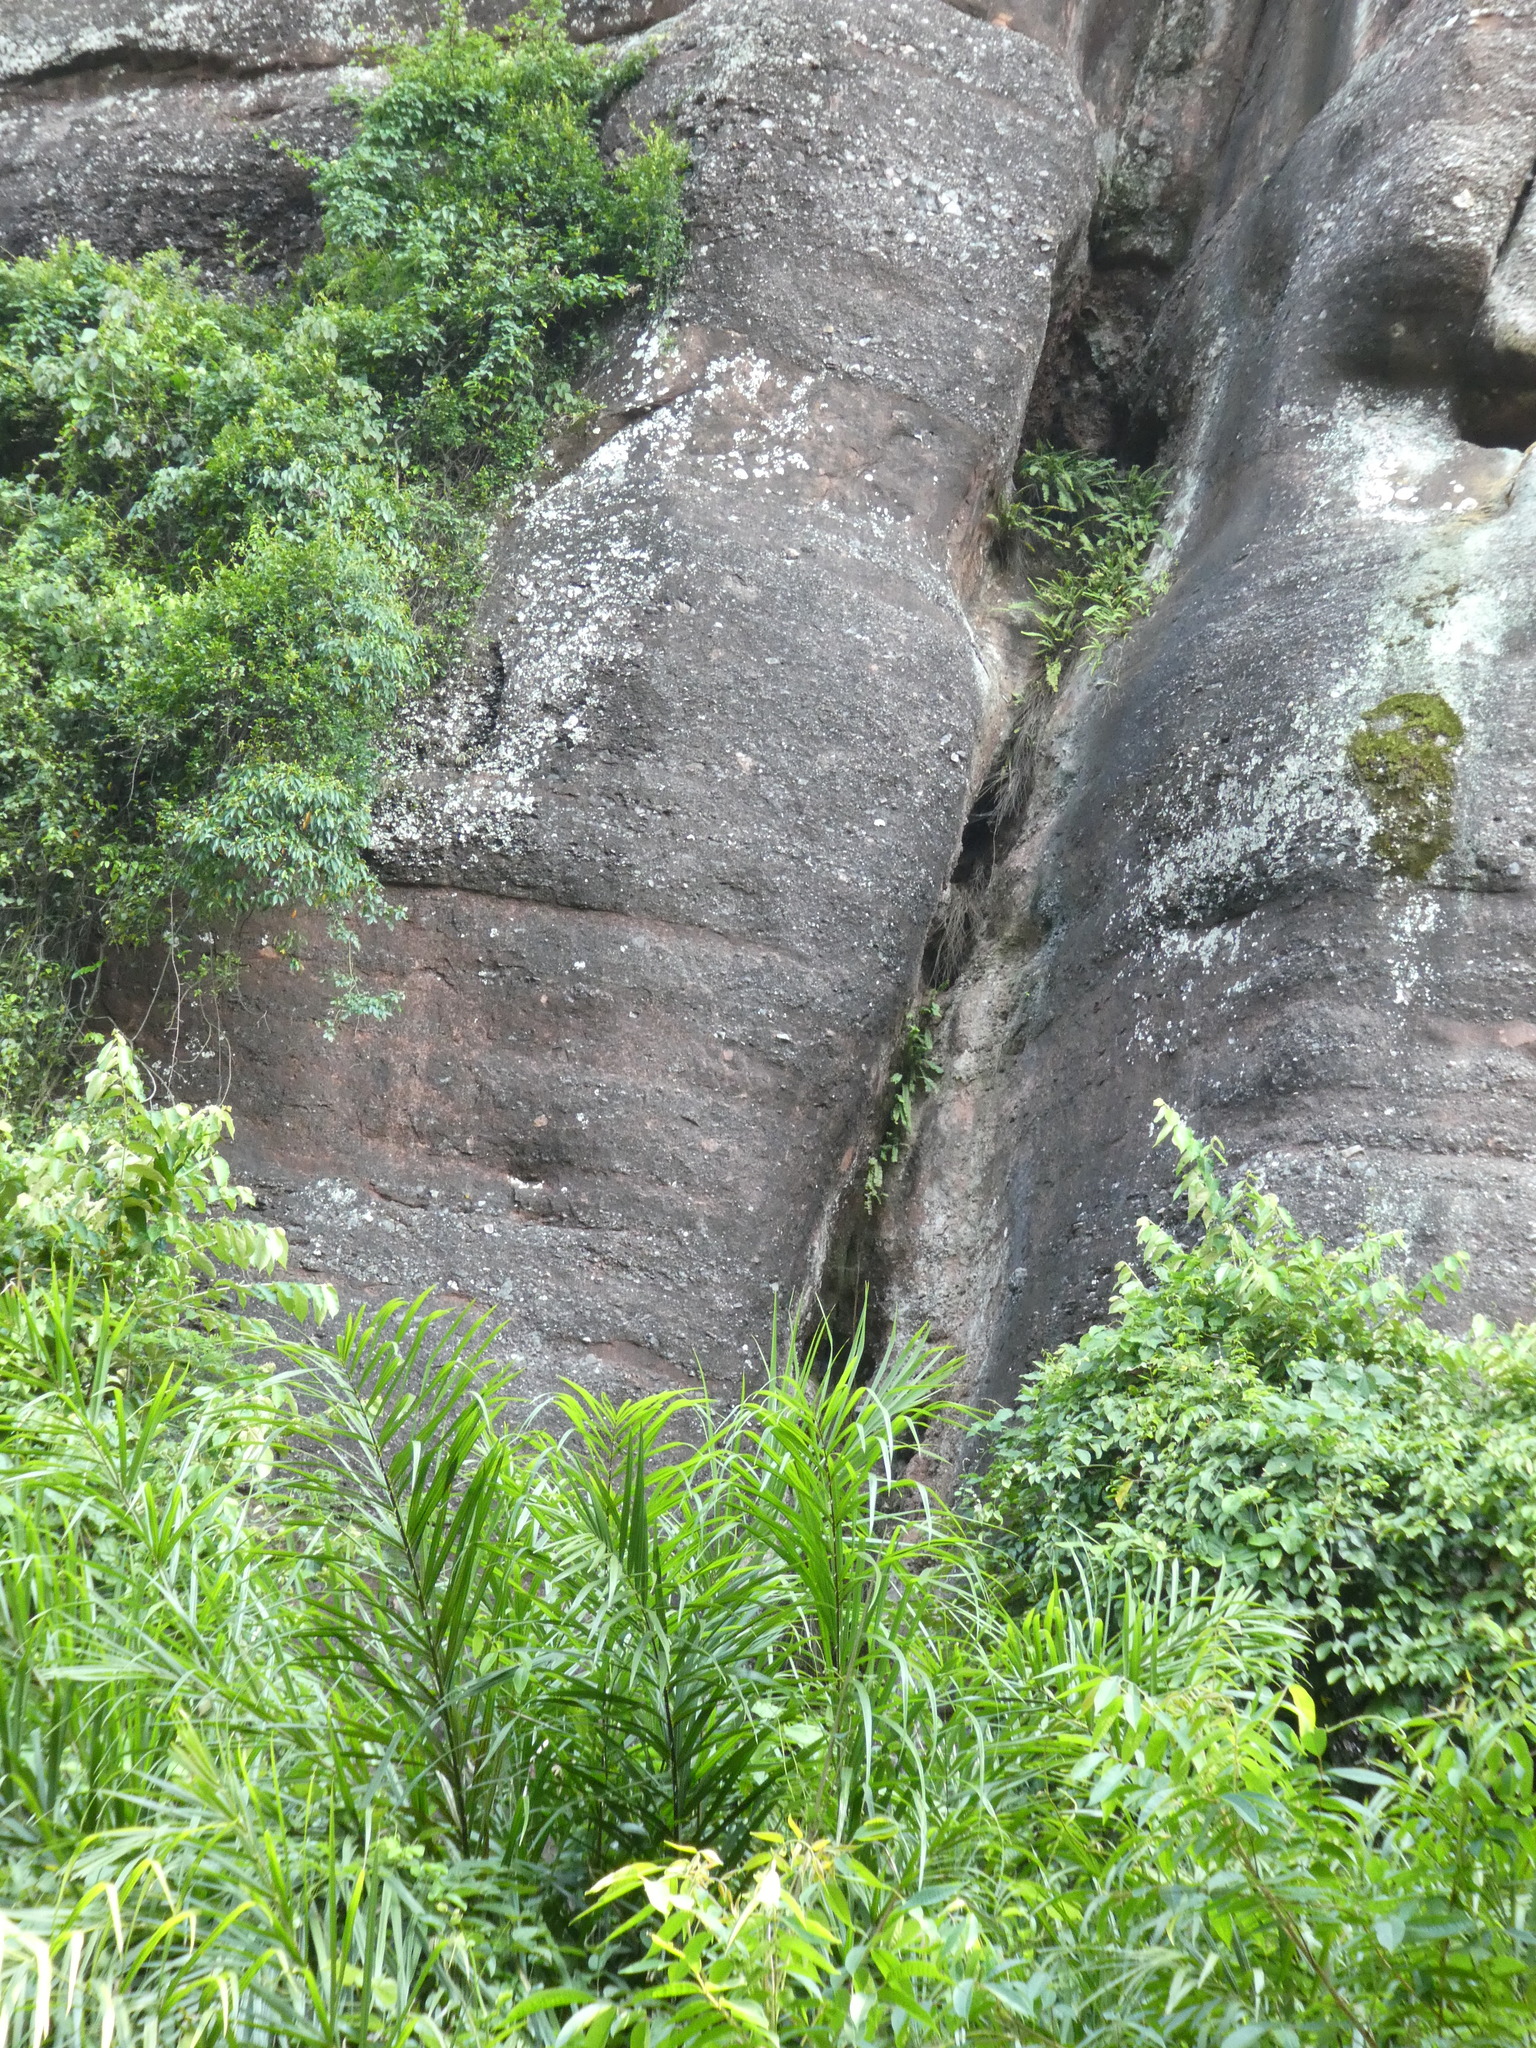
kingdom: Plantae
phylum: Tracheophyta
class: Liliopsida
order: Arecales
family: Arecaceae
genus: Calamus
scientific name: Calamus thysanolepis
